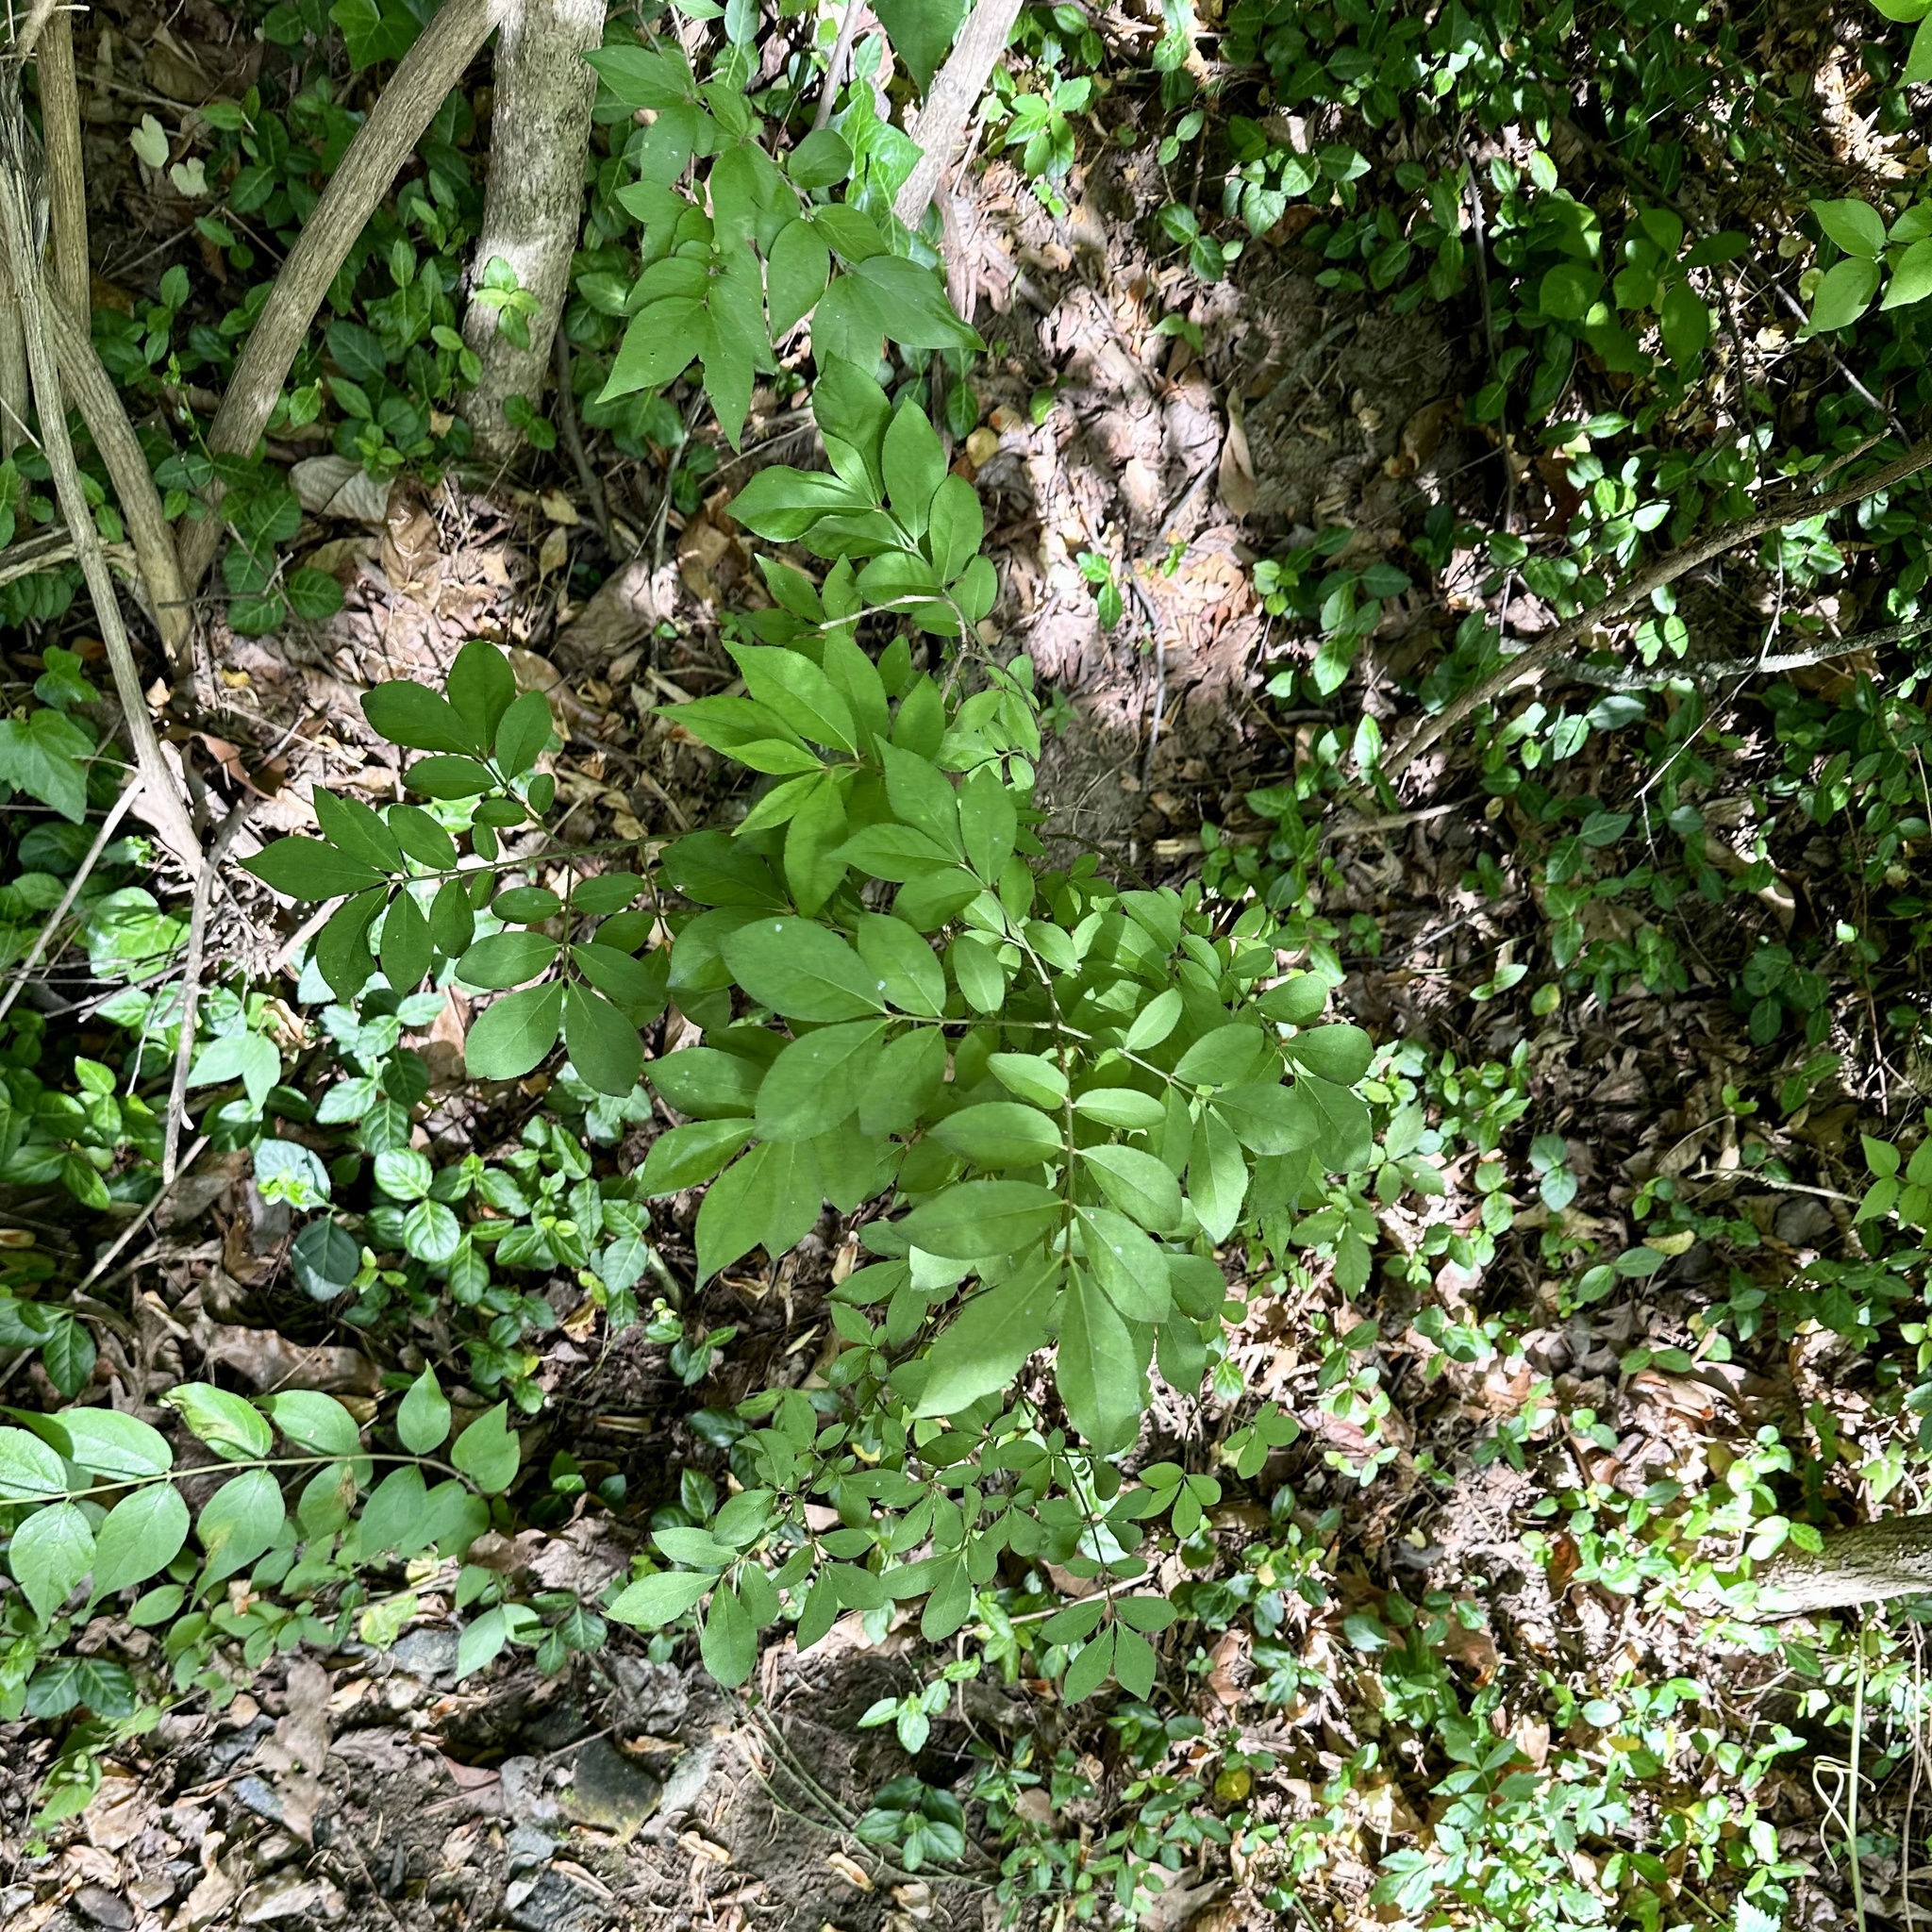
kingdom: Plantae
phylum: Tracheophyta
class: Magnoliopsida
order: Celastrales
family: Celastraceae
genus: Euonymus
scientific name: Euonymus alatus
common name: Winged euonymus
